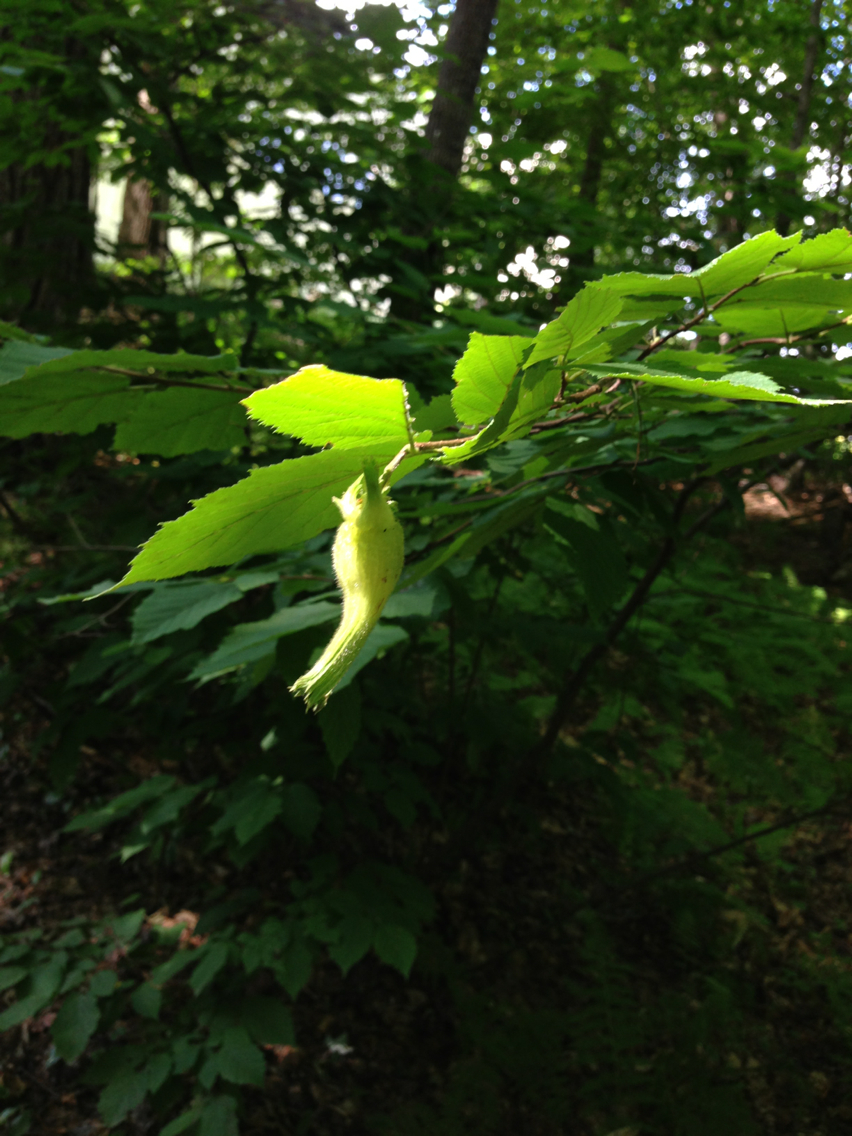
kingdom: Plantae
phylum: Tracheophyta
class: Magnoliopsida
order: Fagales
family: Betulaceae
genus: Corylus
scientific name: Corylus cornuta
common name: Beaked hazel
